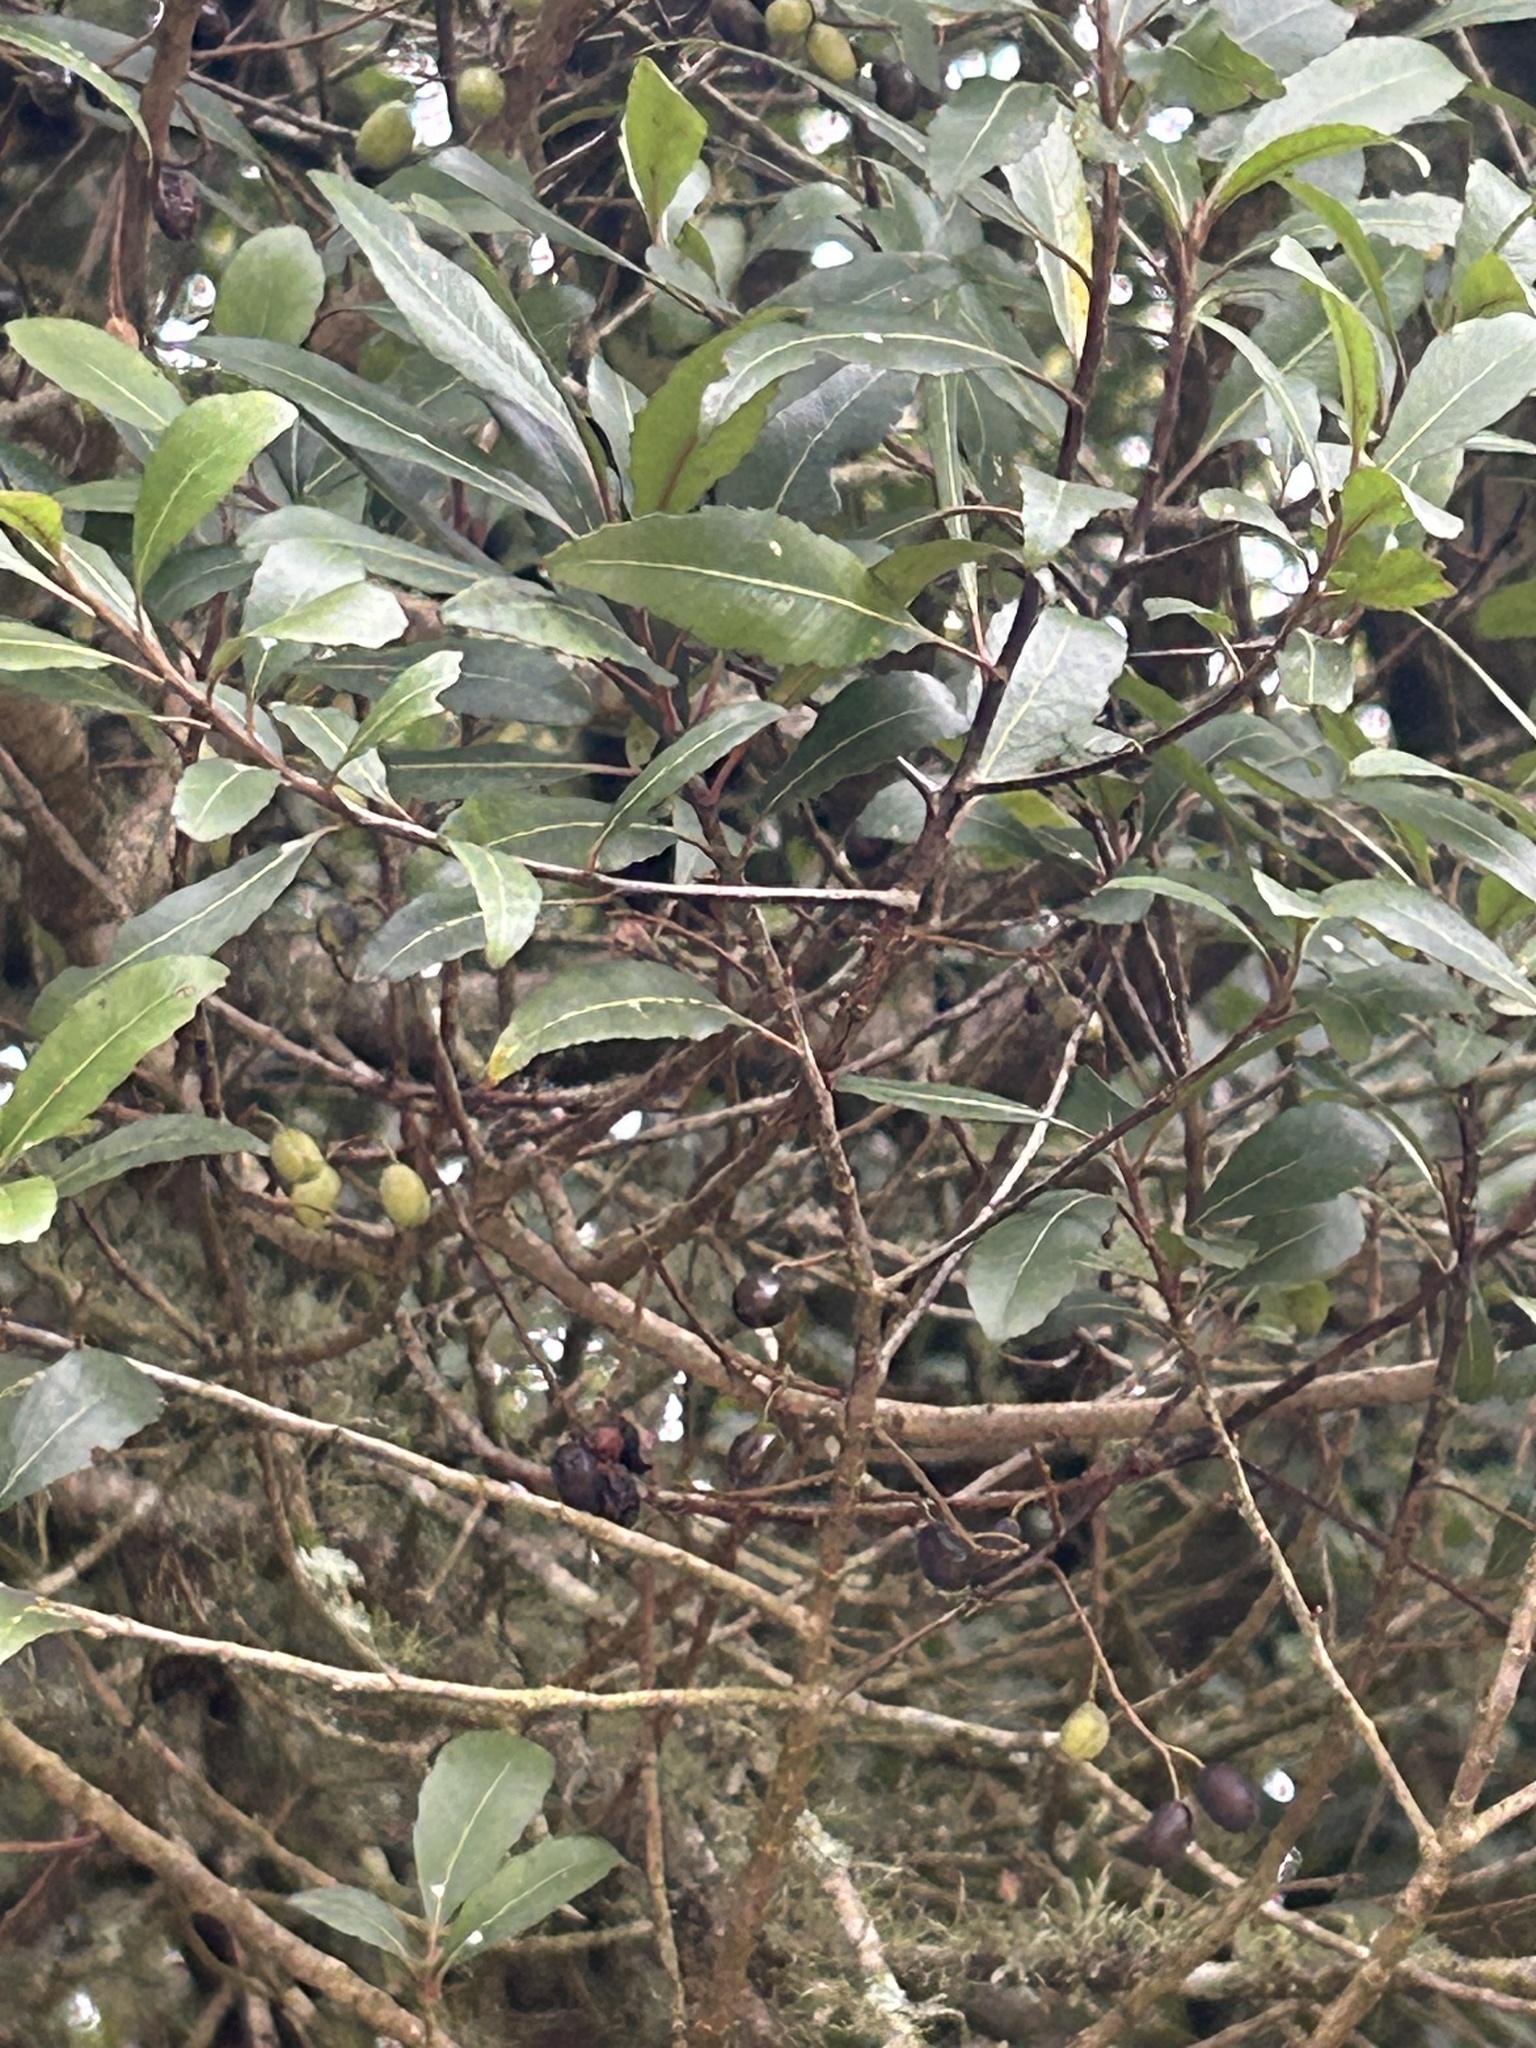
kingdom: Plantae
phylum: Tracheophyta
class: Magnoliopsida
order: Oxalidales
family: Elaeocarpaceae
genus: Elaeocarpus
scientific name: Elaeocarpus hookerianus
